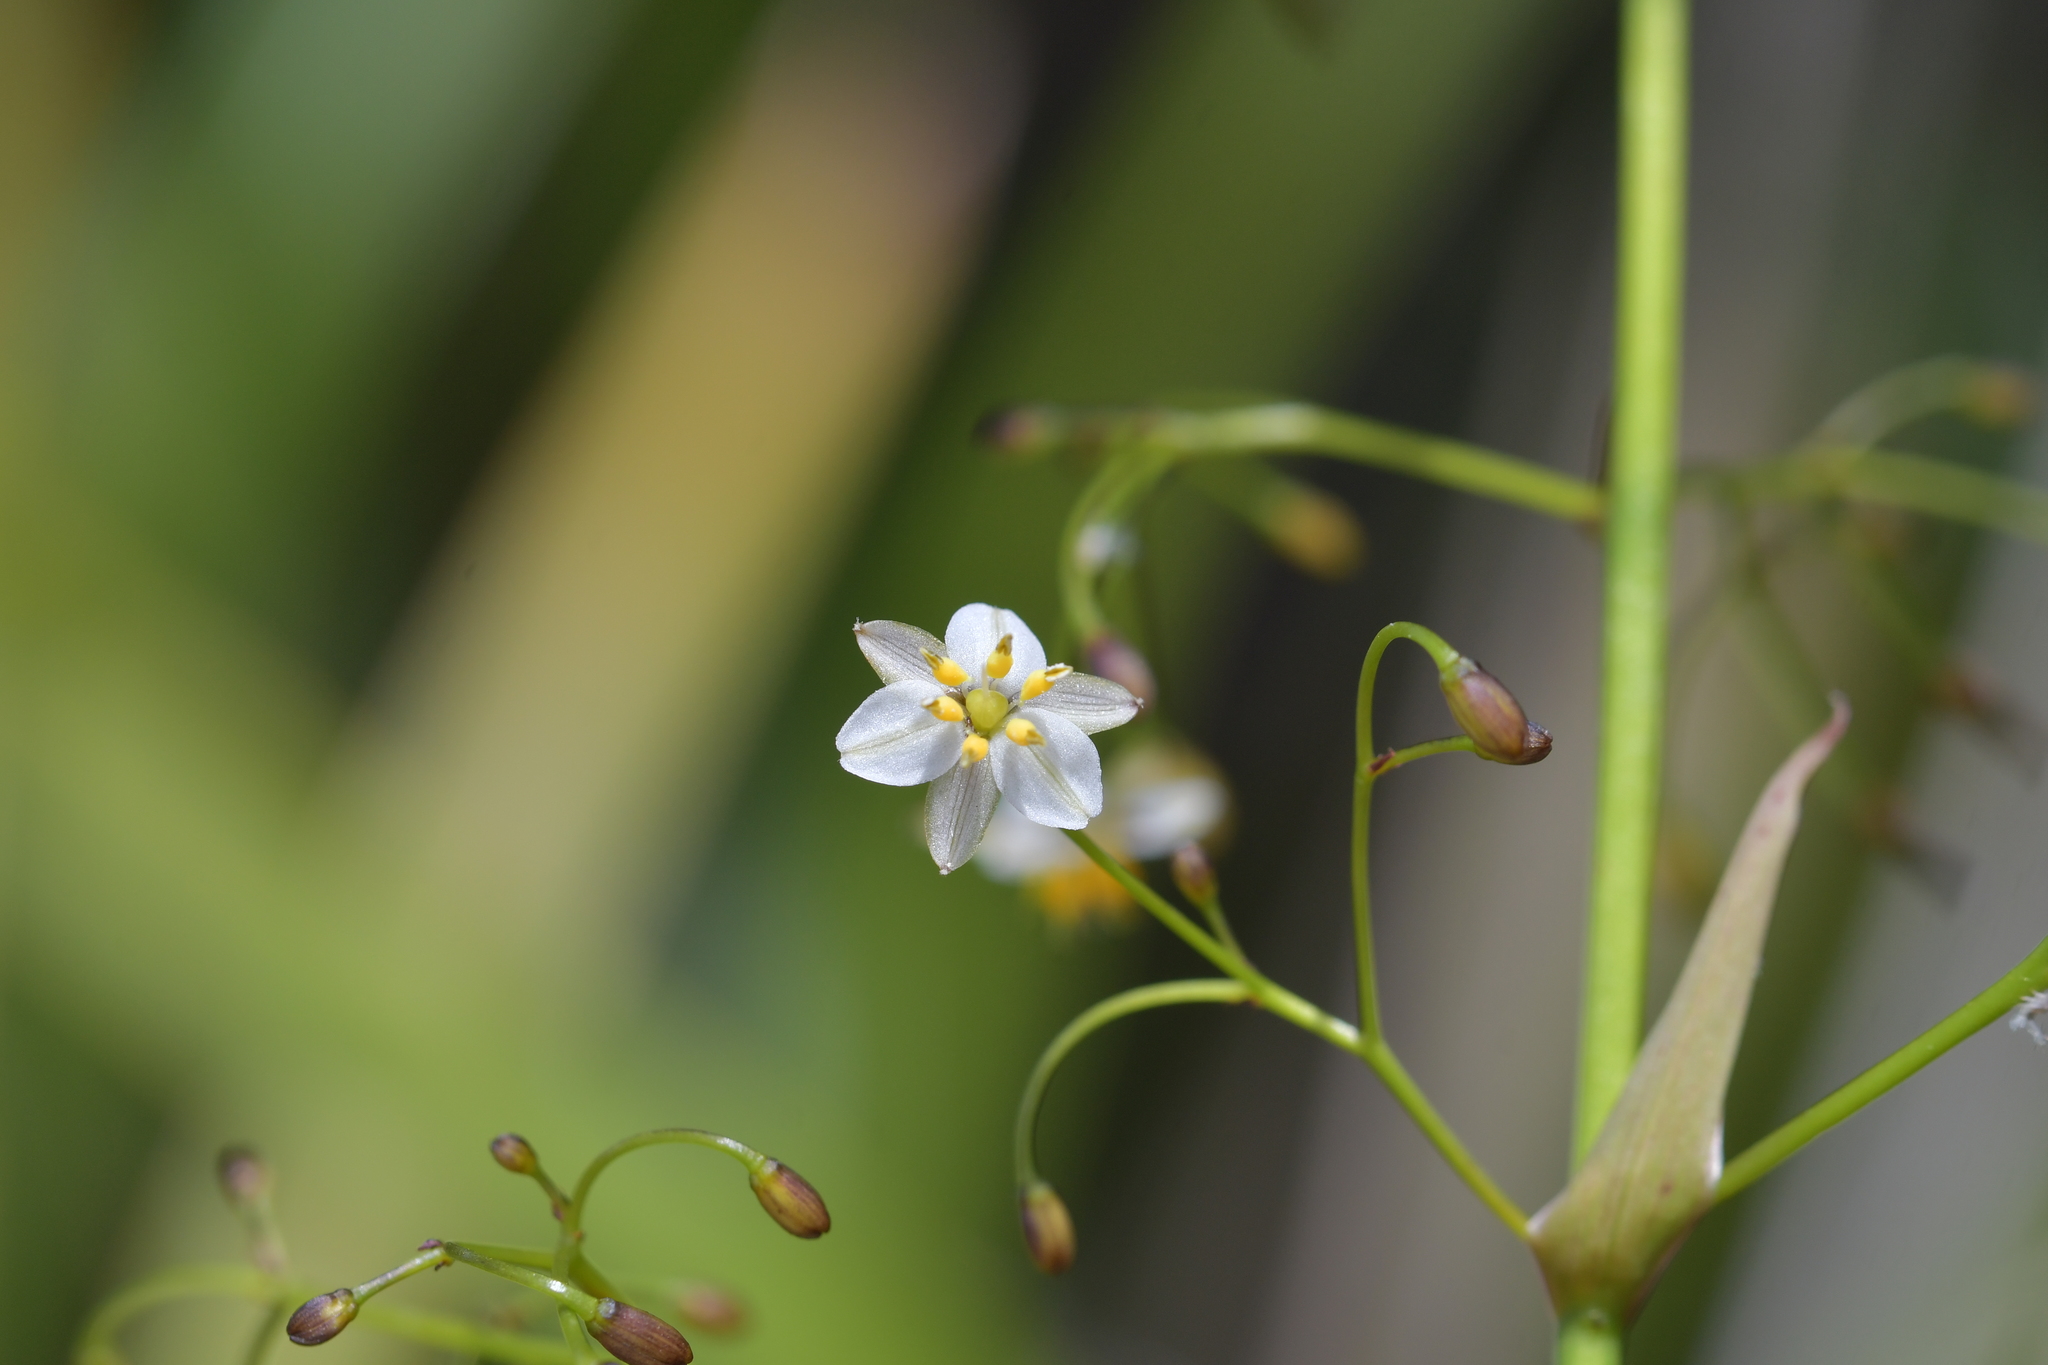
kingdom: Plantae
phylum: Tracheophyta
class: Liliopsida
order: Asparagales
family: Asphodelaceae
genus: Dianella
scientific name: Dianella nigra
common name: New zealand-blueberry
